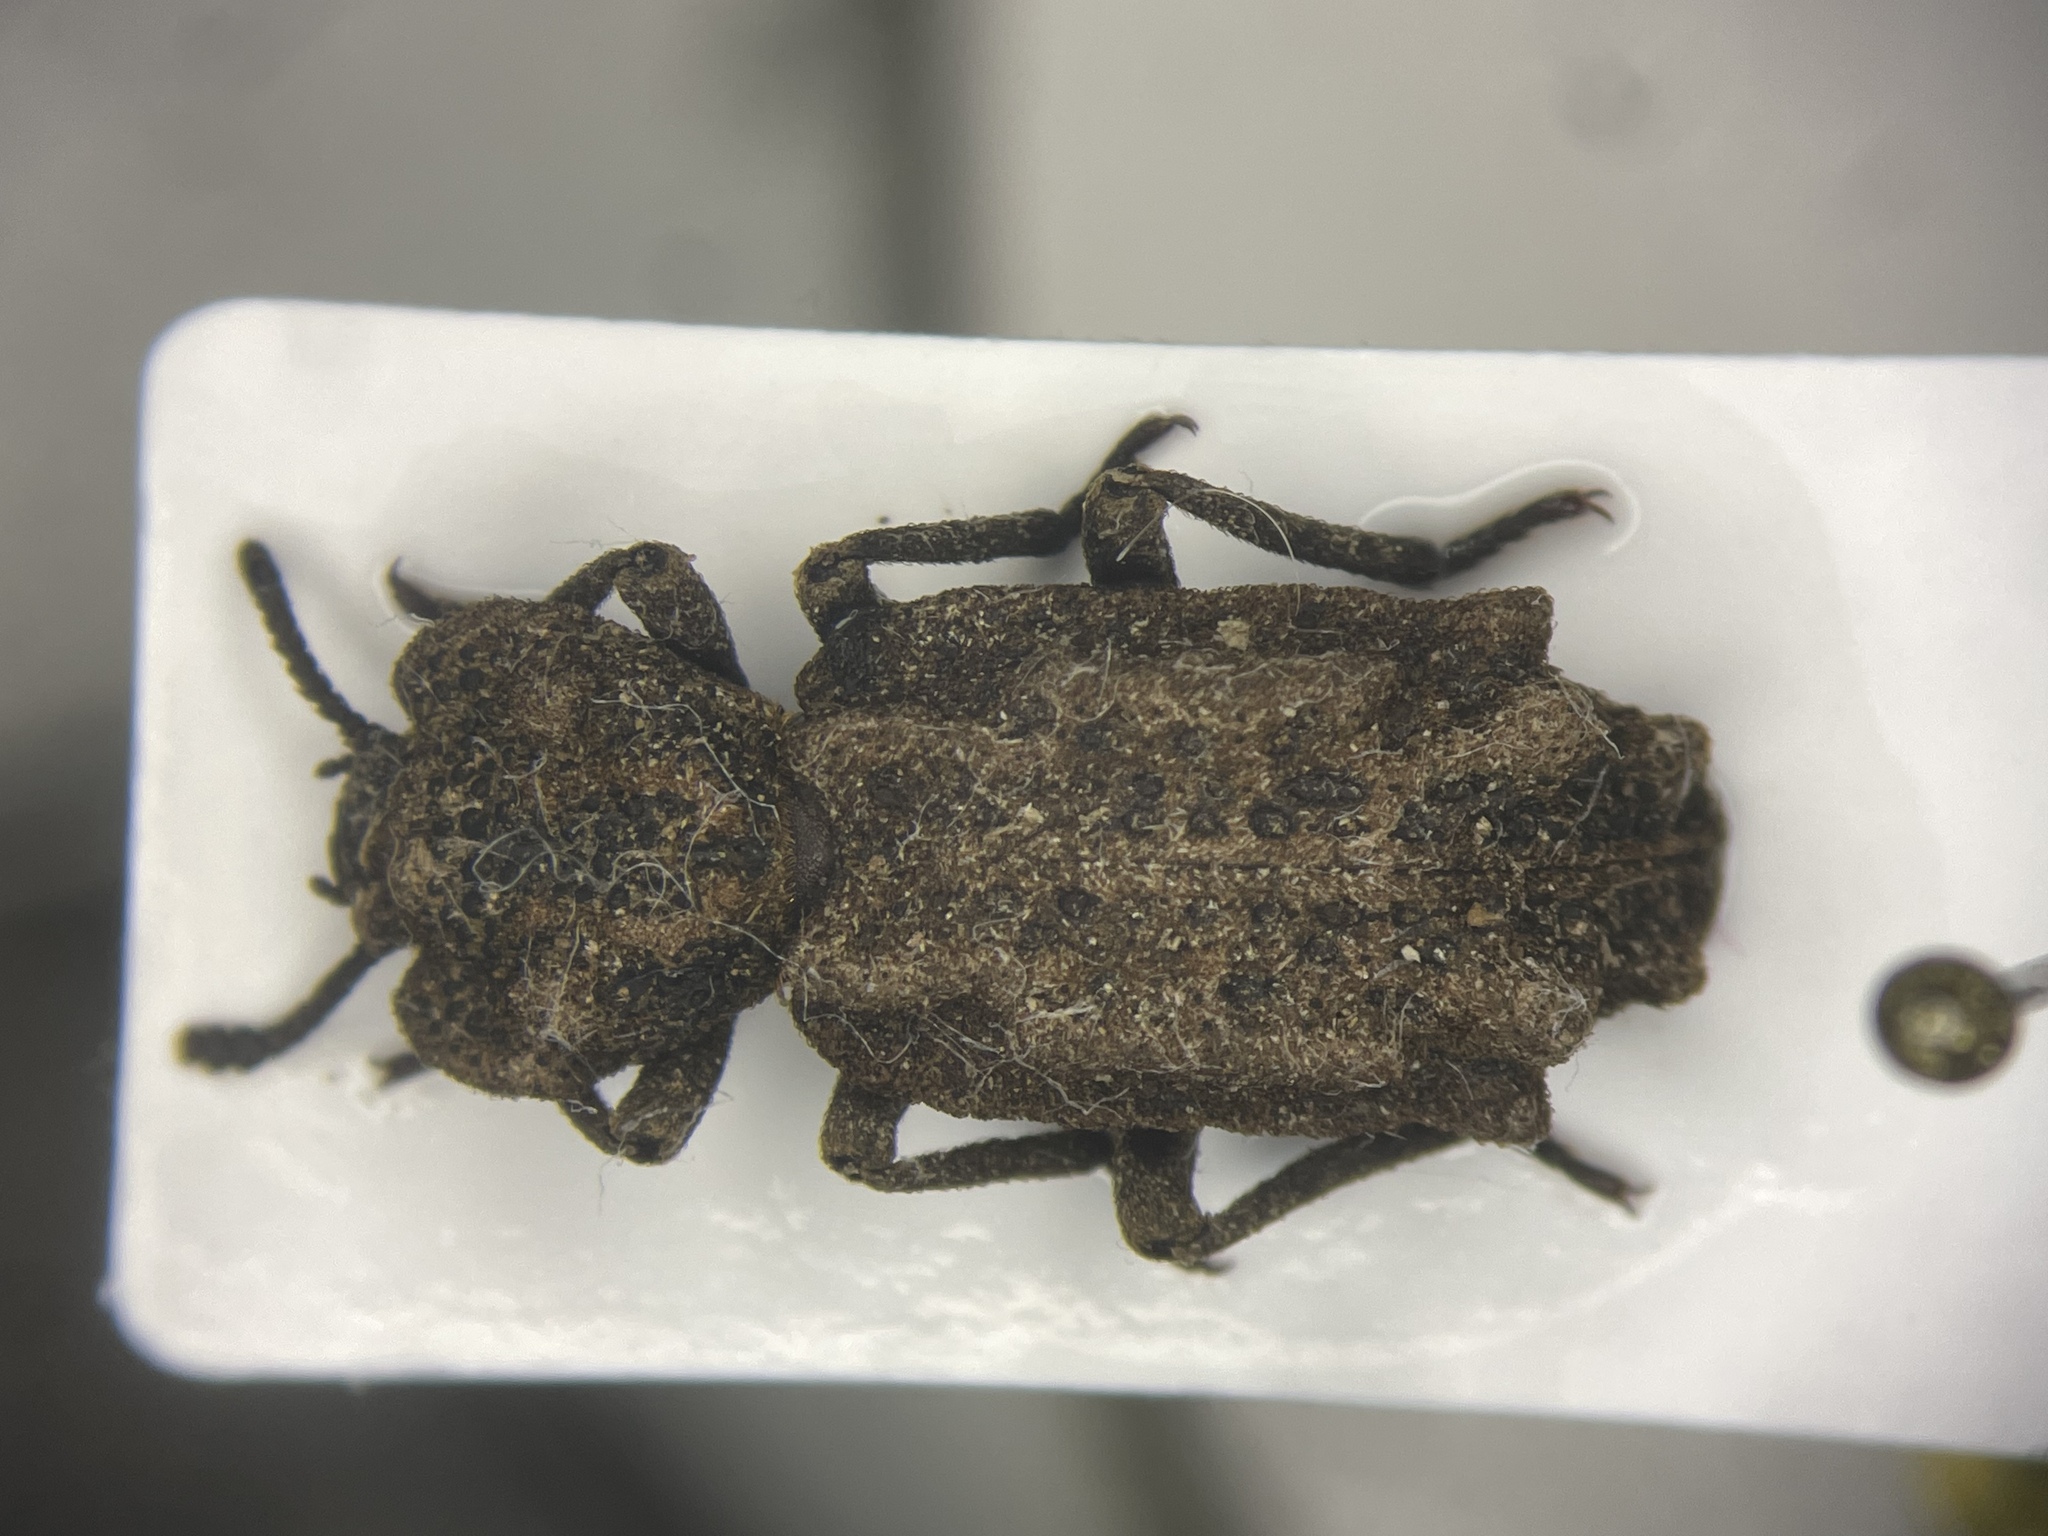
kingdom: Animalia
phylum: Arthropoda
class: Insecta
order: Coleoptera
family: Zopheridae
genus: Phellopsis
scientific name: Phellopsis obcordata
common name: Eastern ironclad beetle
